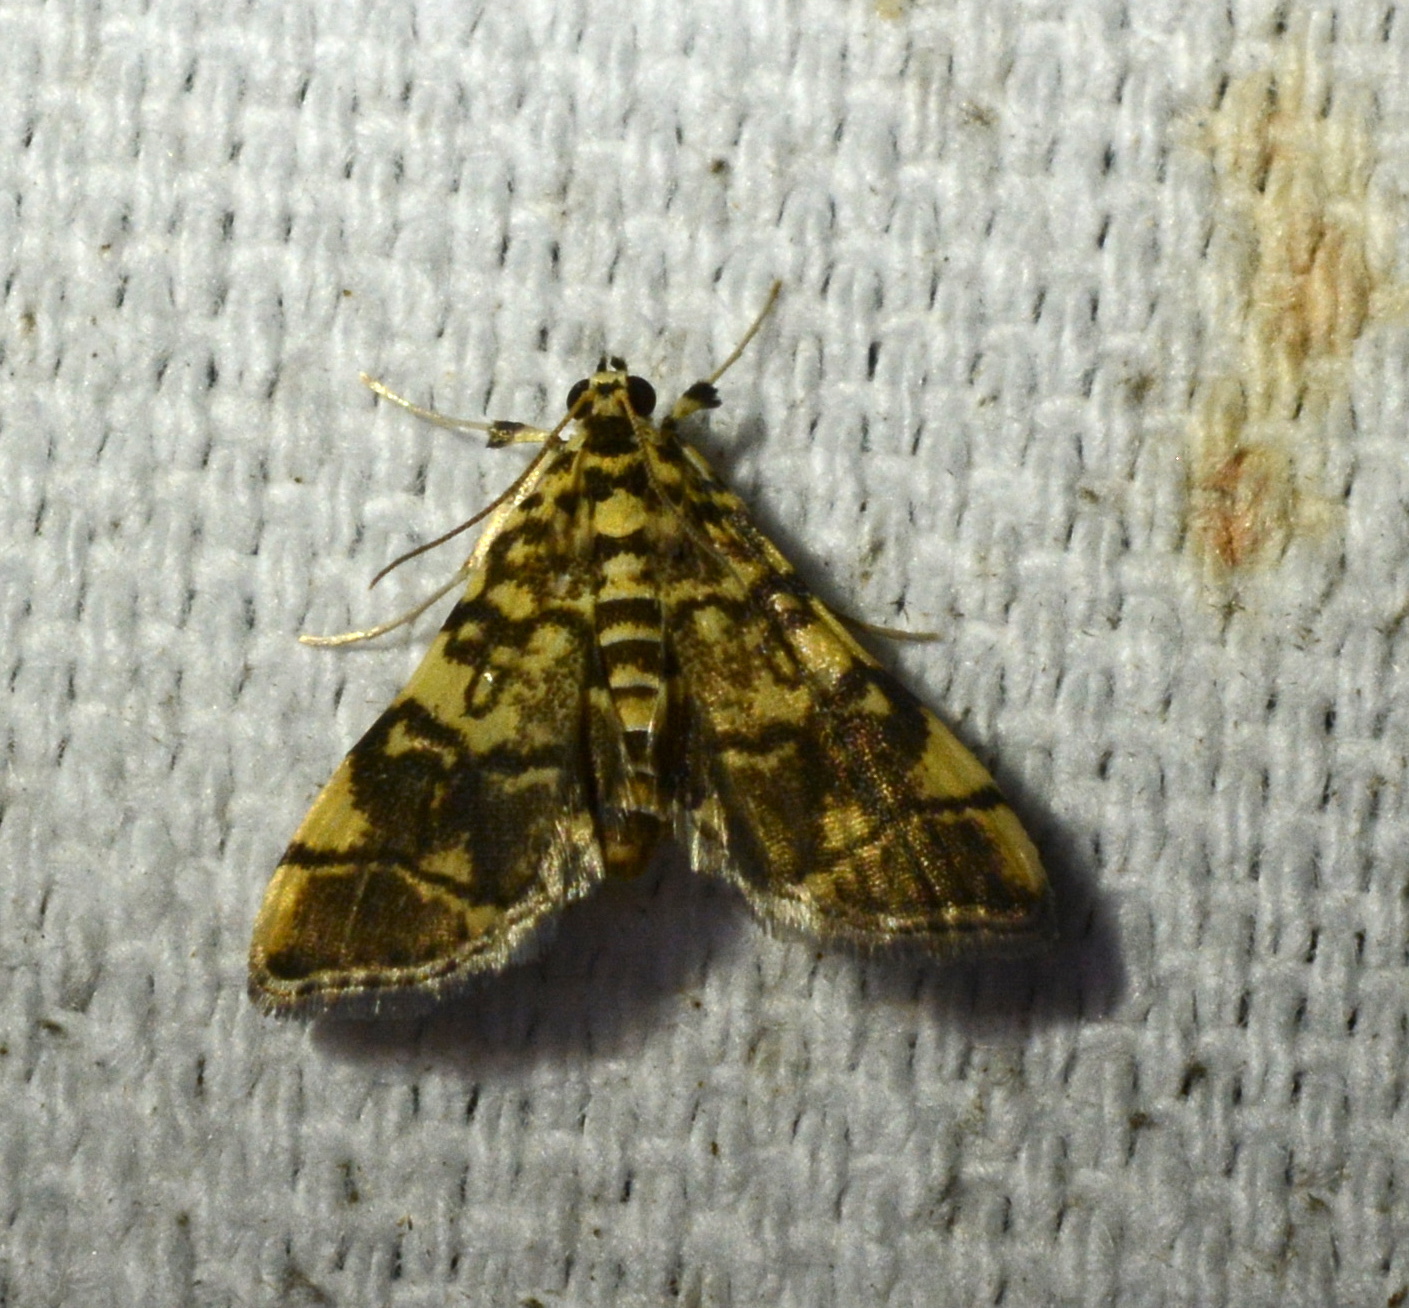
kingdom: Animalia
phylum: Arthropoda
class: Insecta
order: Lepidoptera
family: Crambidae
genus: Apogeshna
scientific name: Apogeshna stenialis
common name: Checkered apogeshna moth
